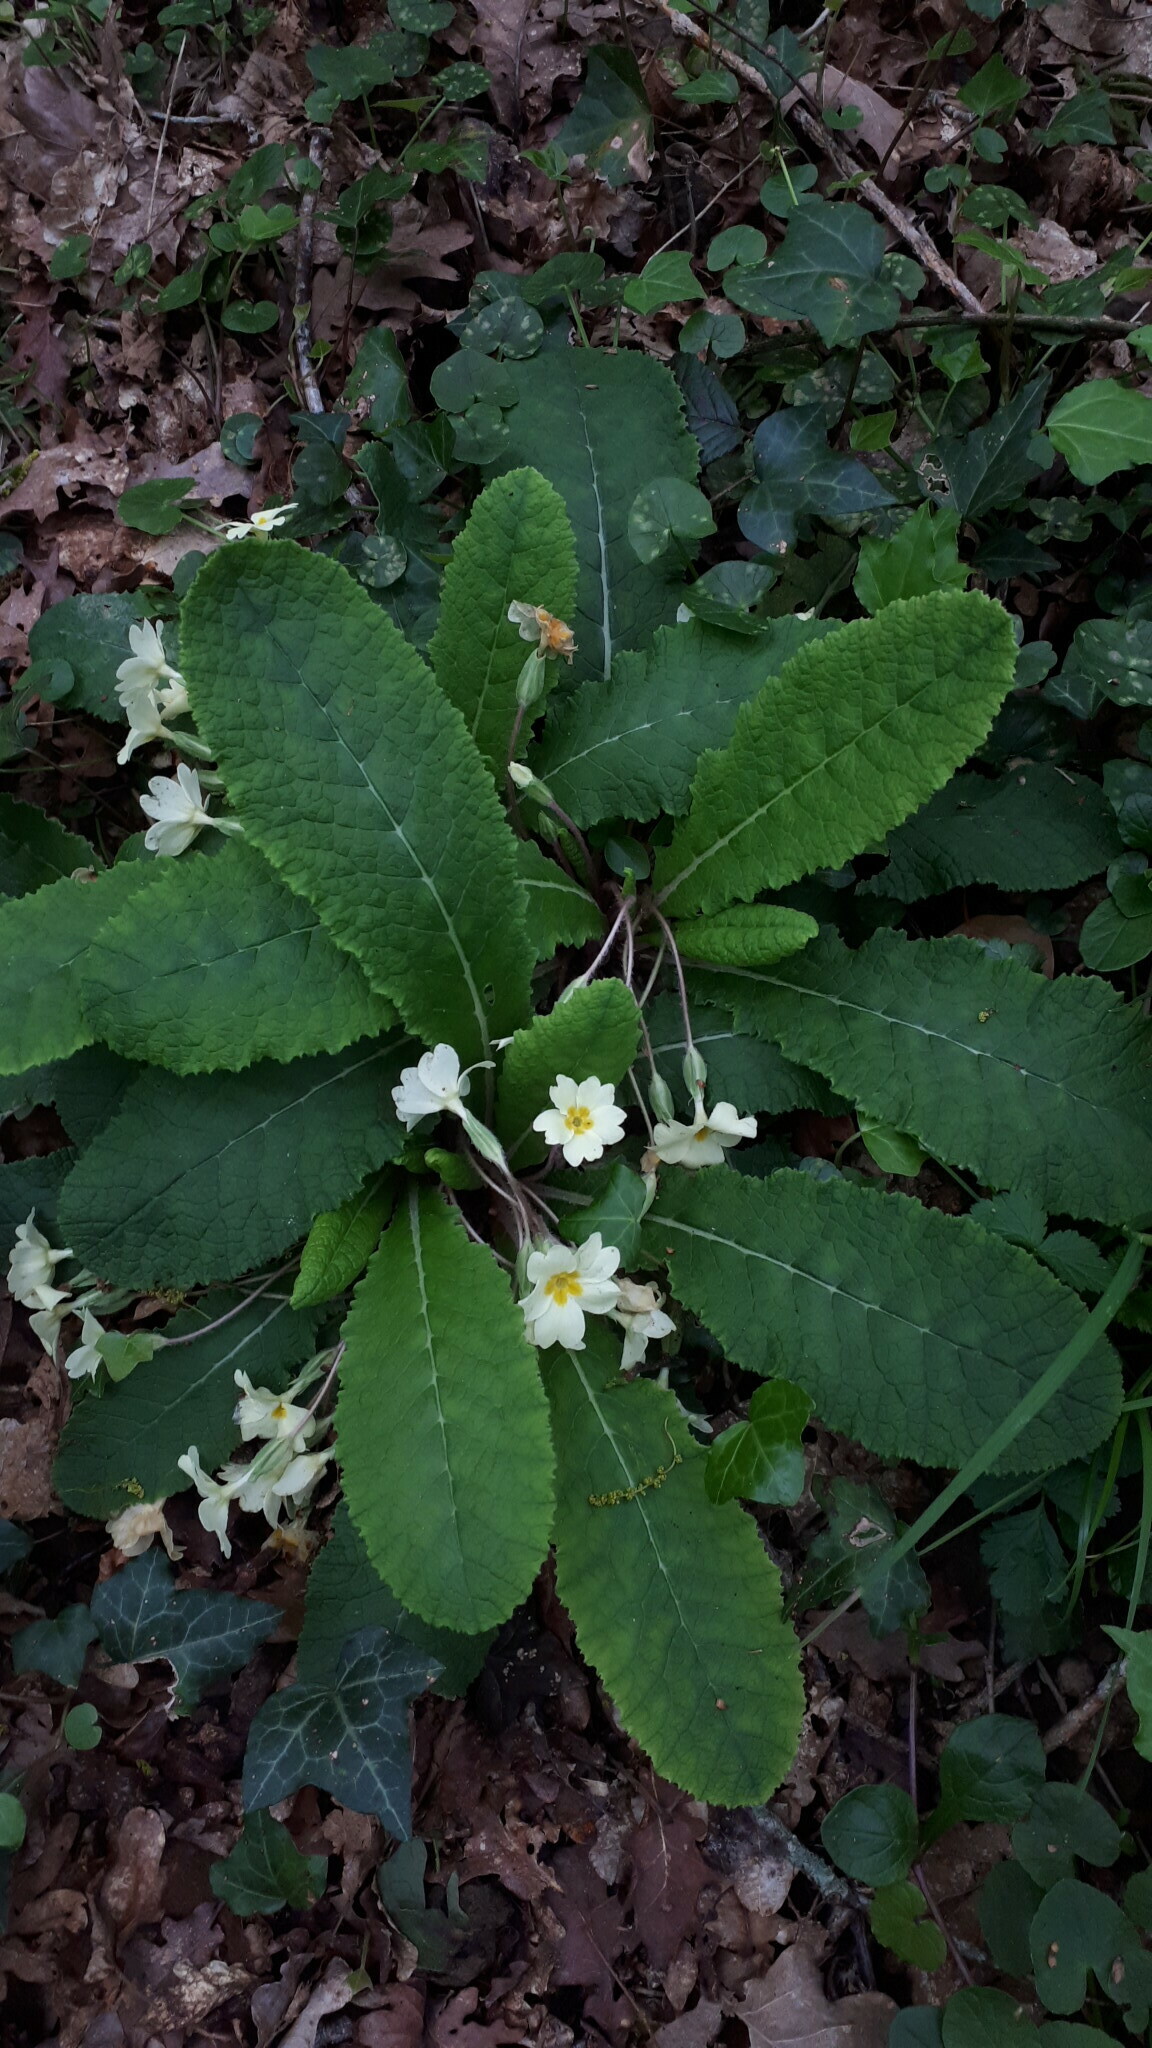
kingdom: Plantae
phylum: Tracheophyta
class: Magnoliopsida
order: Ericales
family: Primulaceae
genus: Primula
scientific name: Primula vulgaris
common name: Primrose
